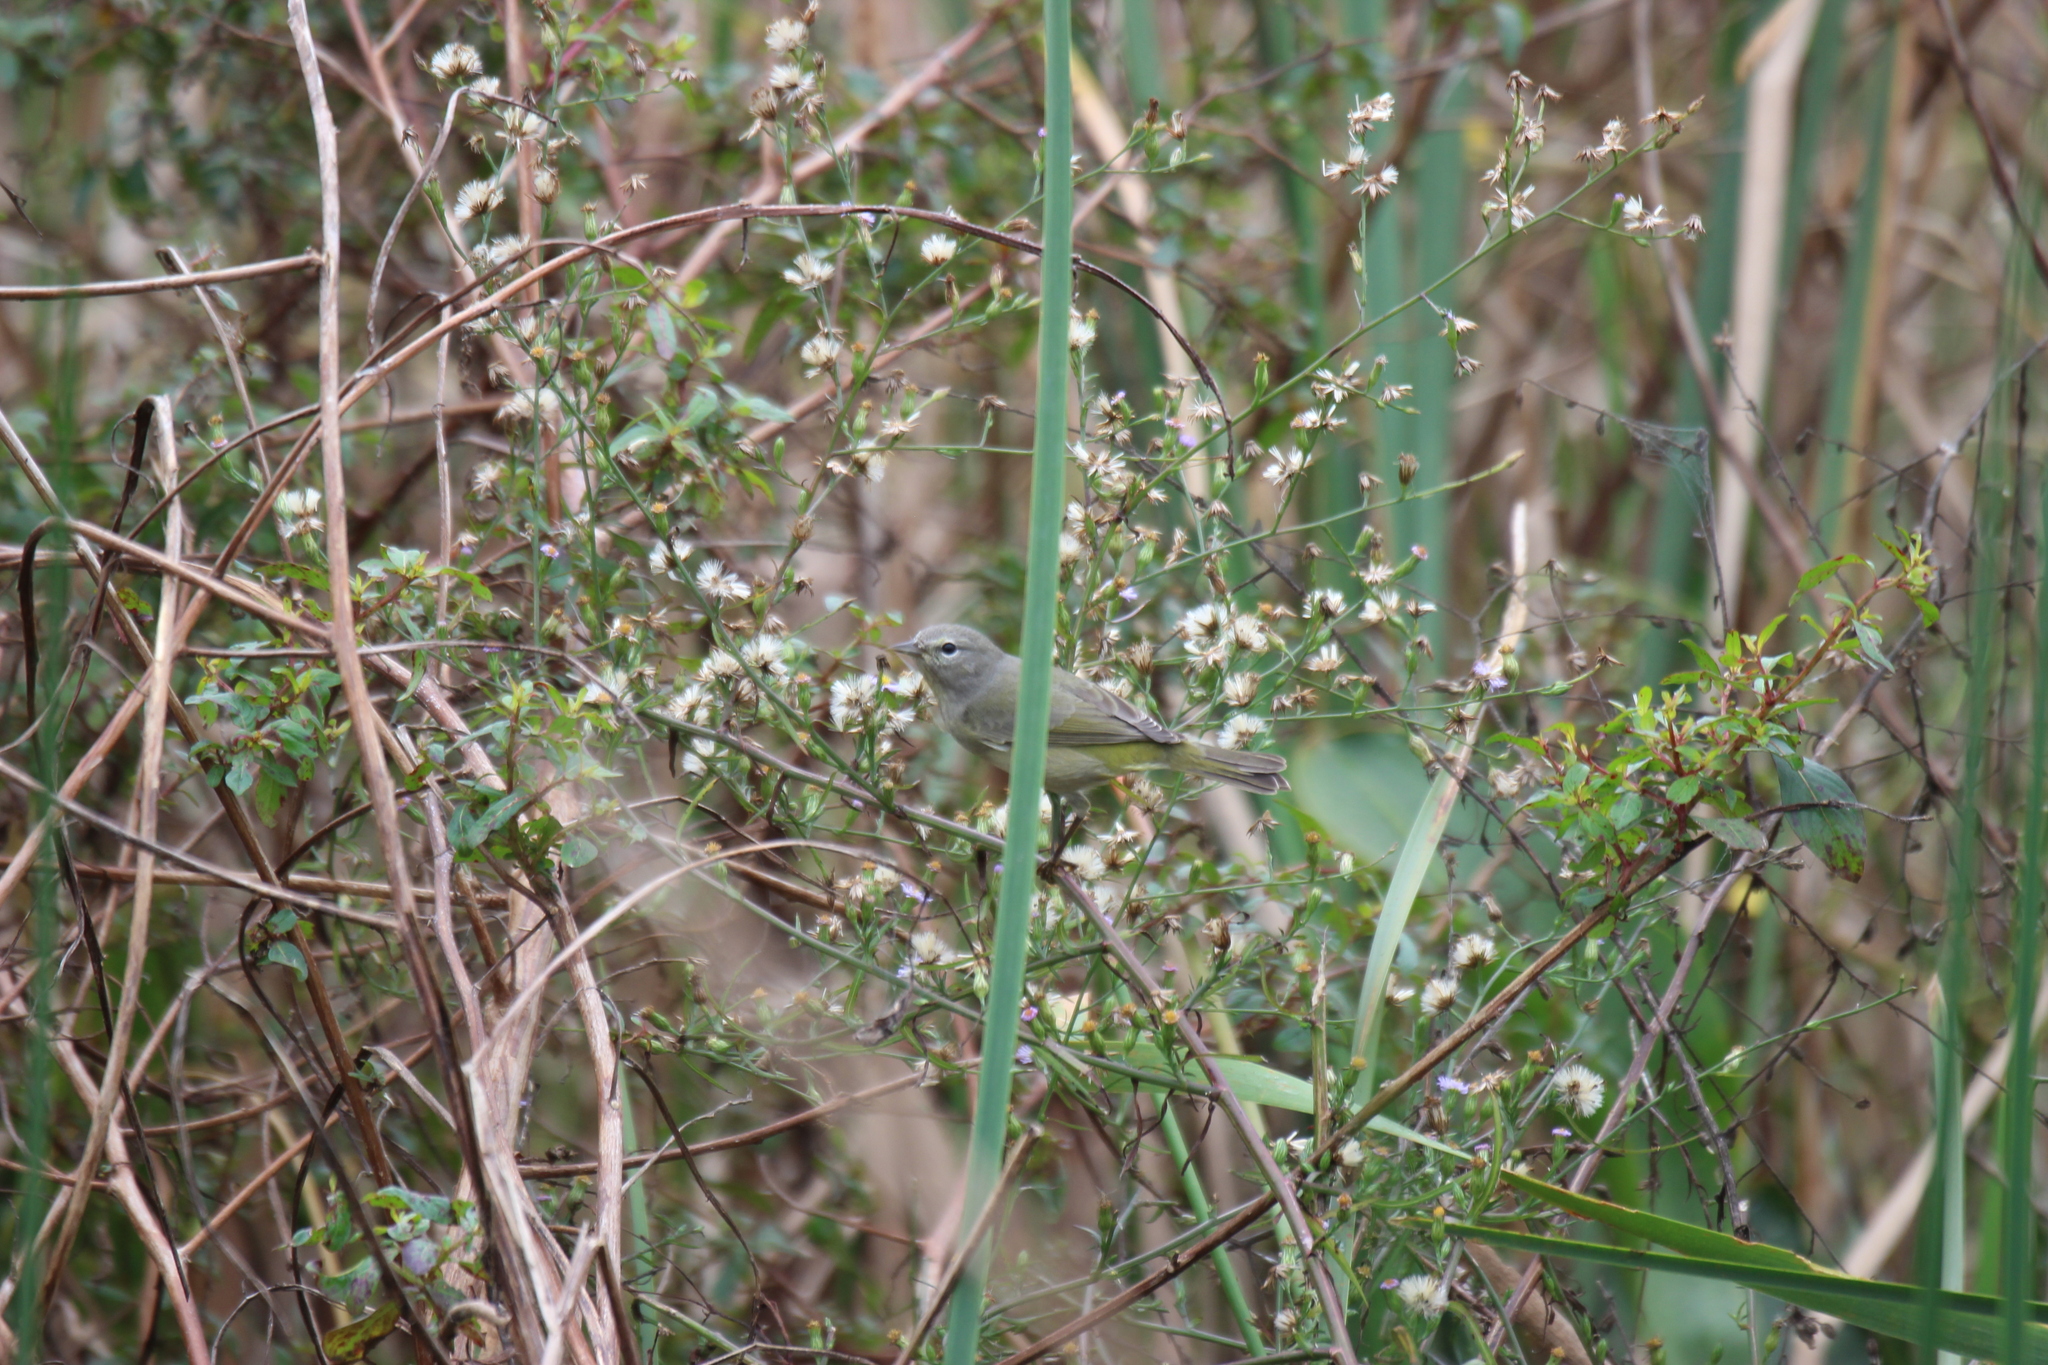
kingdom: Animalia
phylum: Chordata
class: Aves
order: Passeriformes
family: Parulidae
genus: Leiothlypis
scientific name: Leiothlypis celata
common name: Orange-crowned warbler
